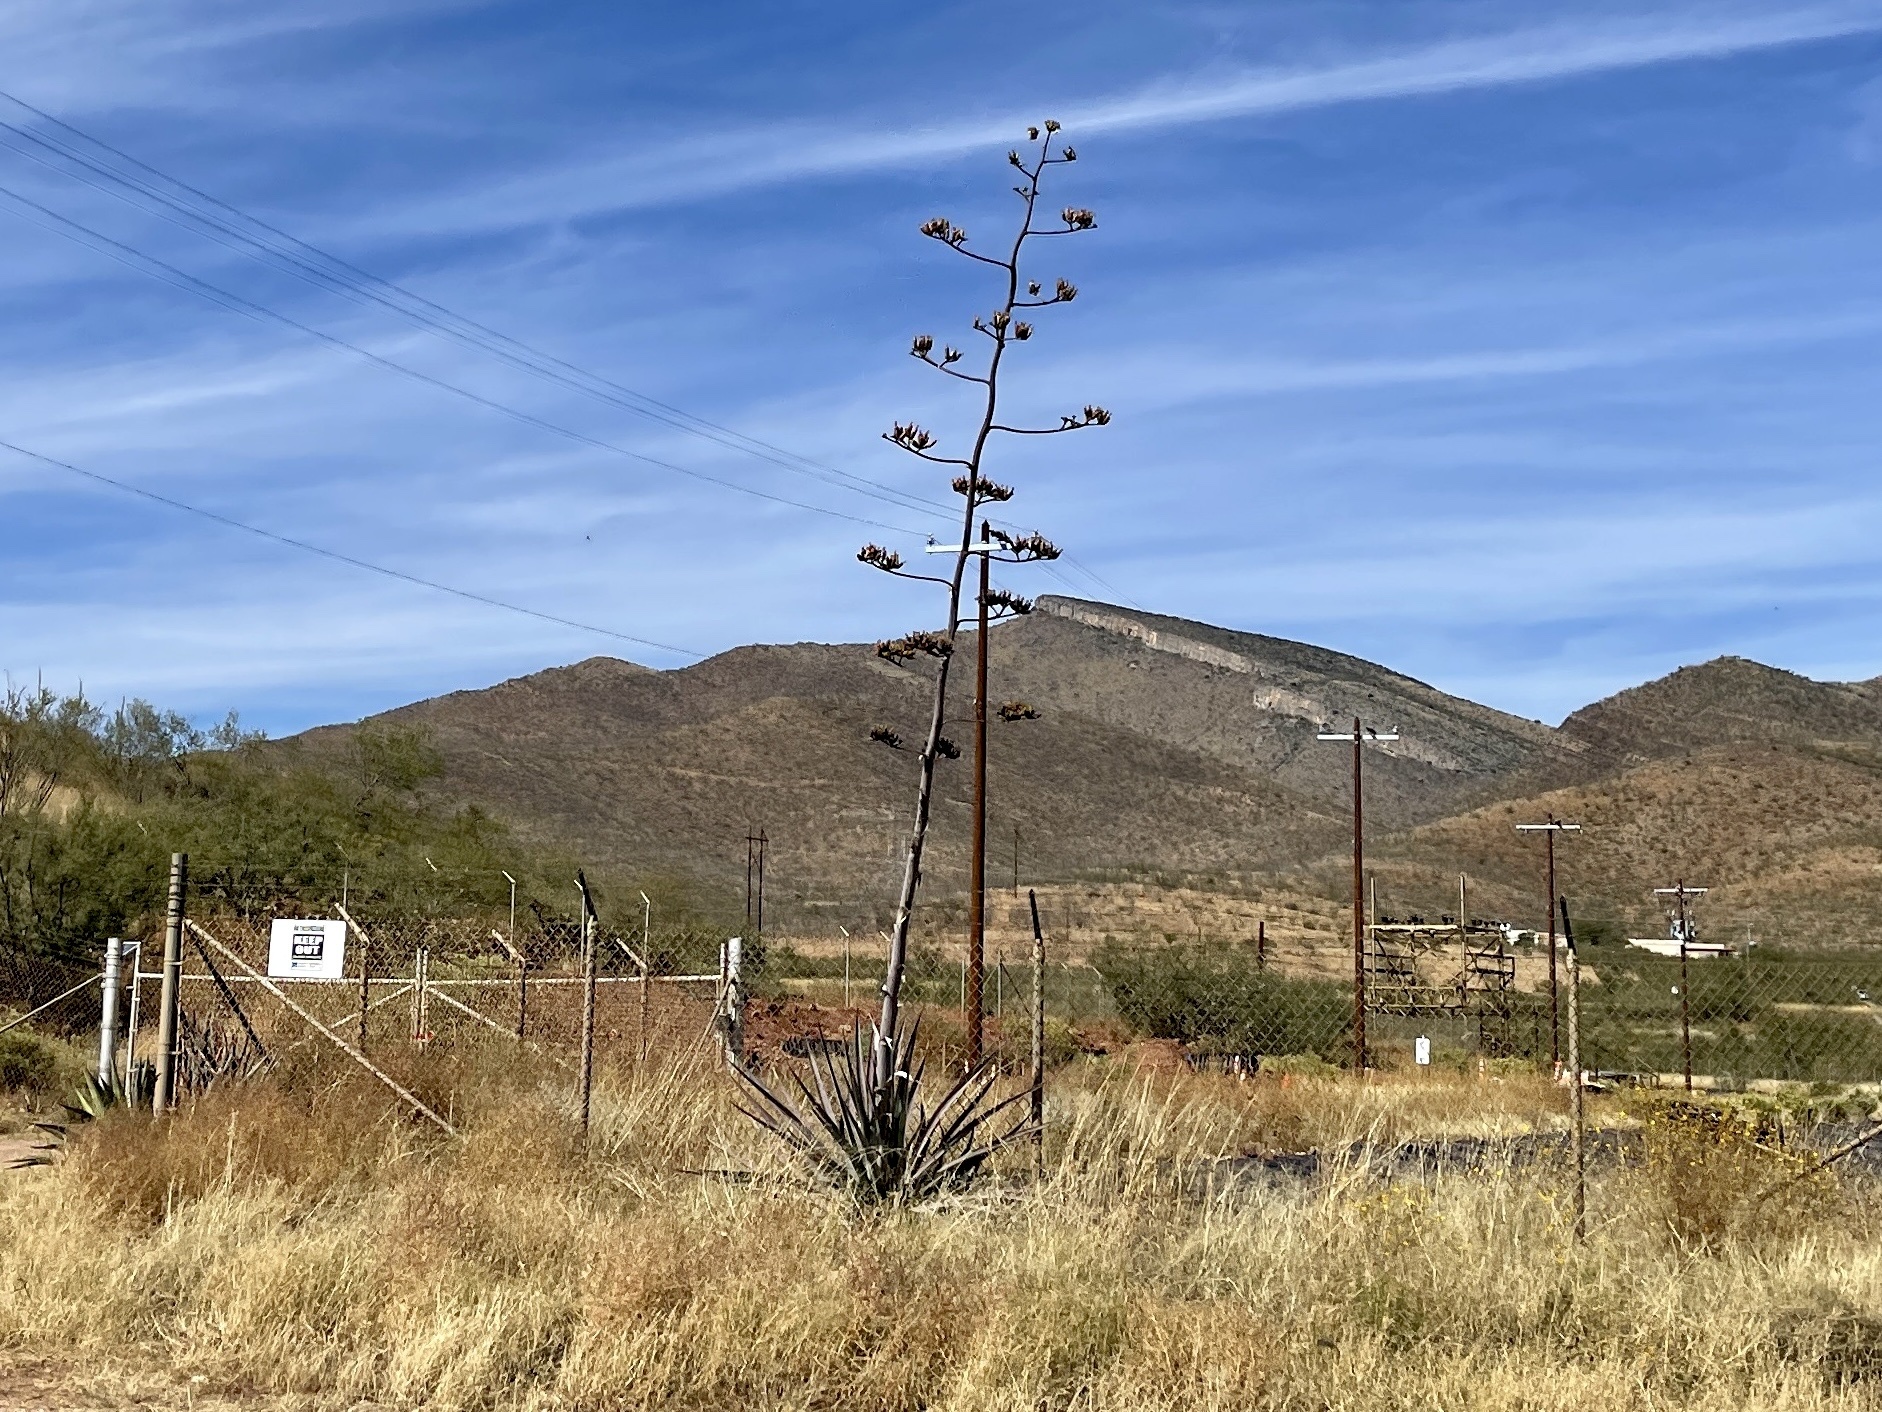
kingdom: Plantae
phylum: Tracheophyta
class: Liliopsida
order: Asparagales
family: Asparagaceae
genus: Agave
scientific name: Agave palmeri
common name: Palmer agave
